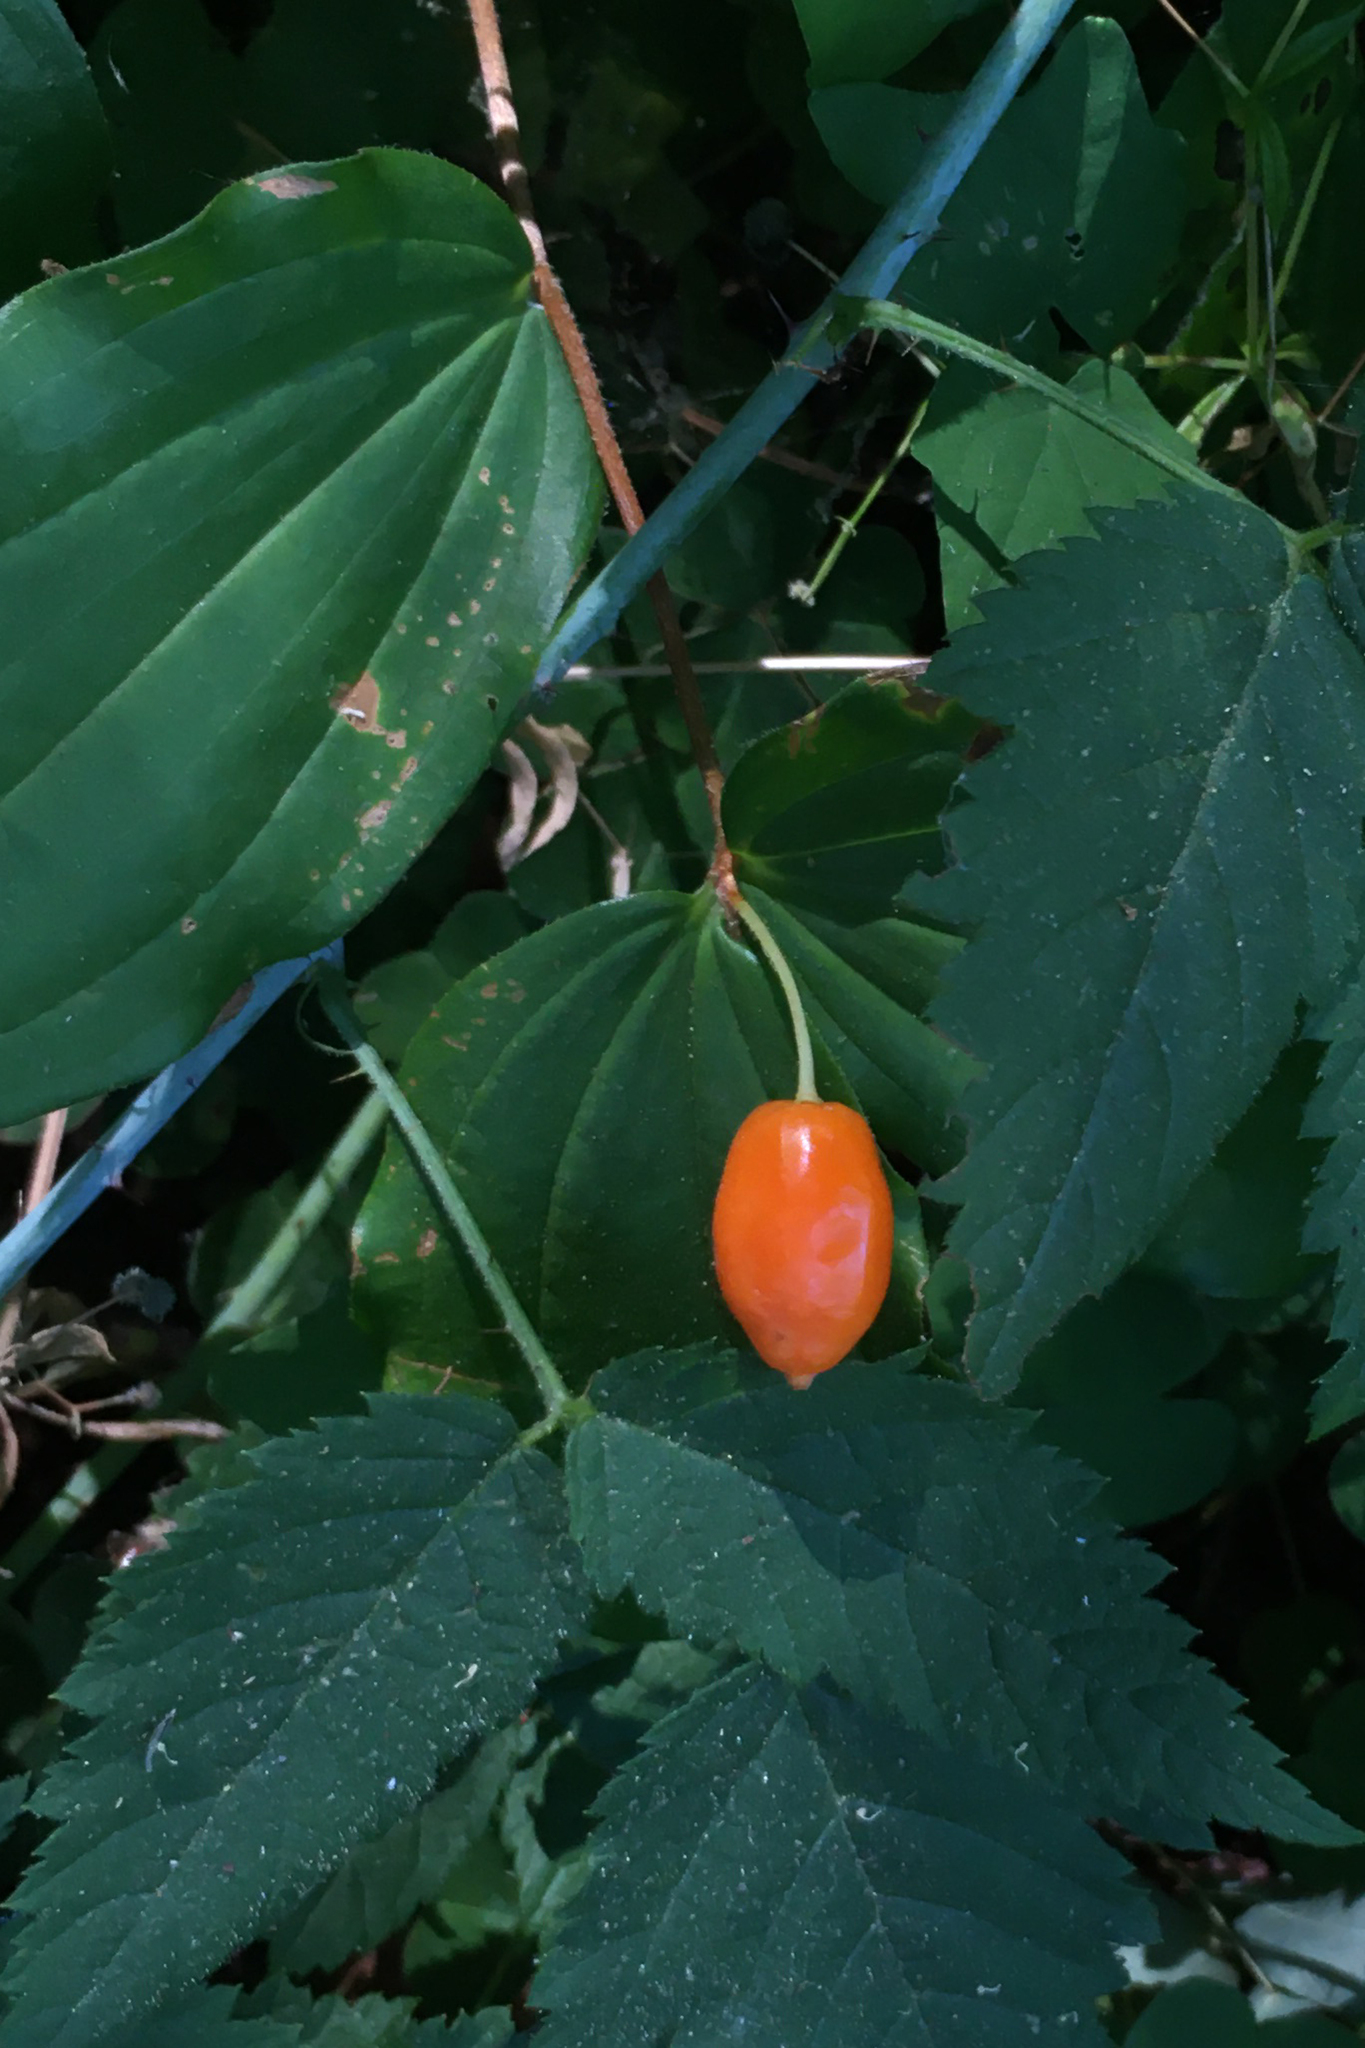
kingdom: Plantae
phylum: Tracheophyta
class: Liliopsida
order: Liliales
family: Liliaceae
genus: Prosartes
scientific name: Prosartes smithii
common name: Fairy-lantern
